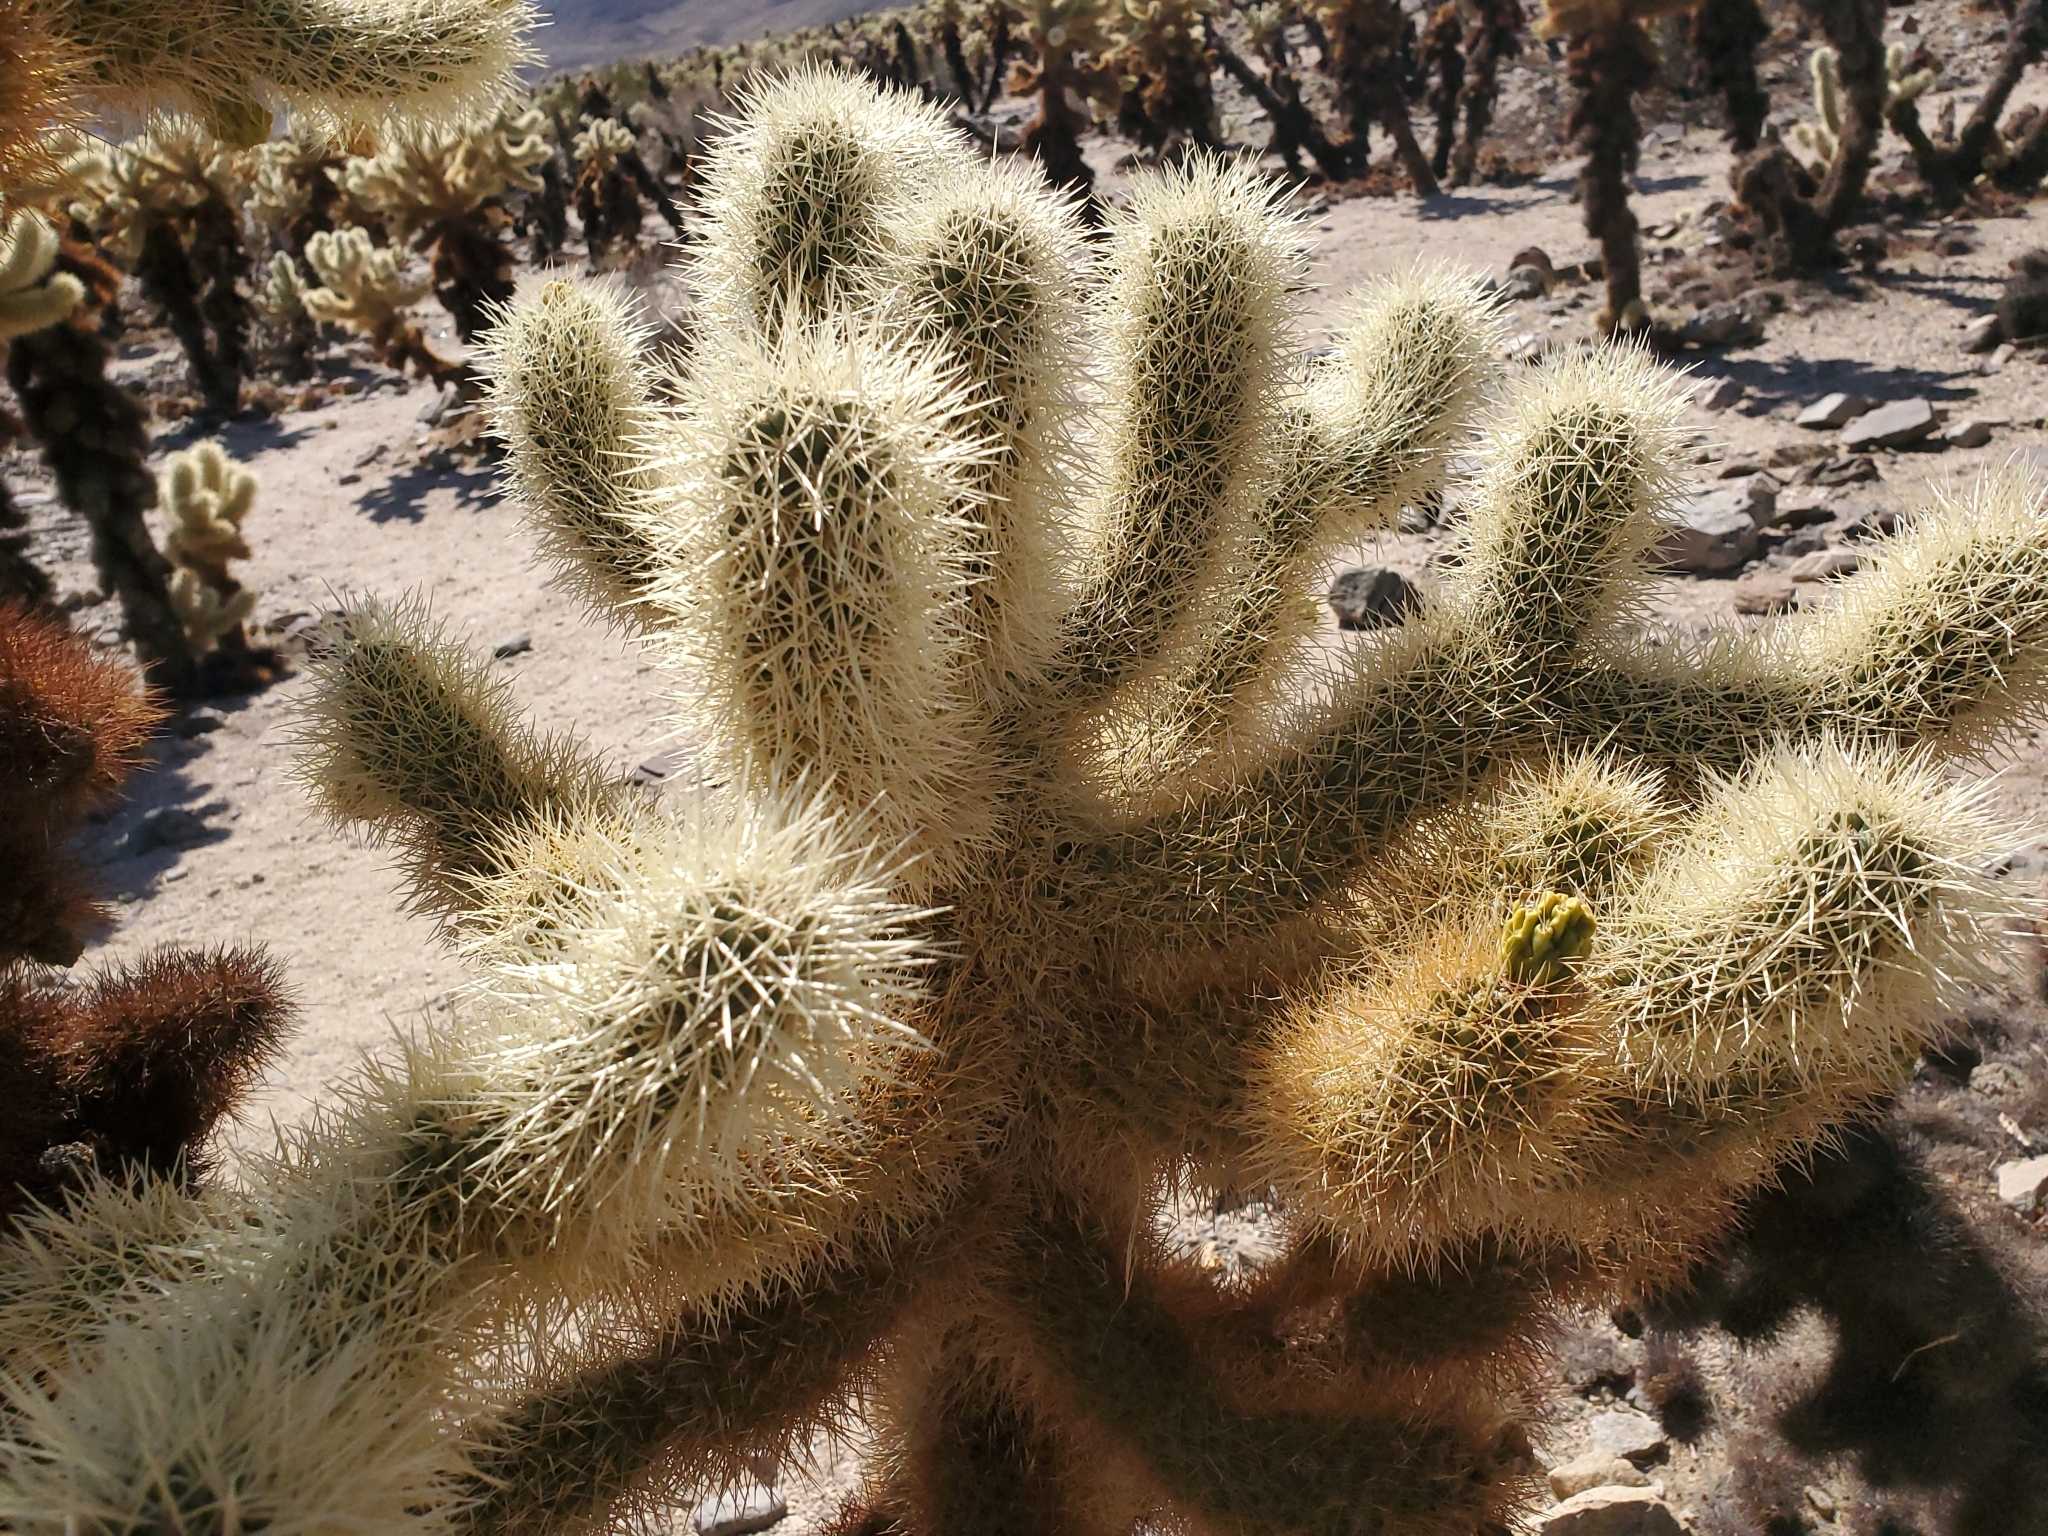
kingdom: Plantae
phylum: Tracheophyta
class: Magnoliopsida
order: Caryophyllales
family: Cactaceae
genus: Cylindropuntia
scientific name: Cylindropuntia fosbergii
